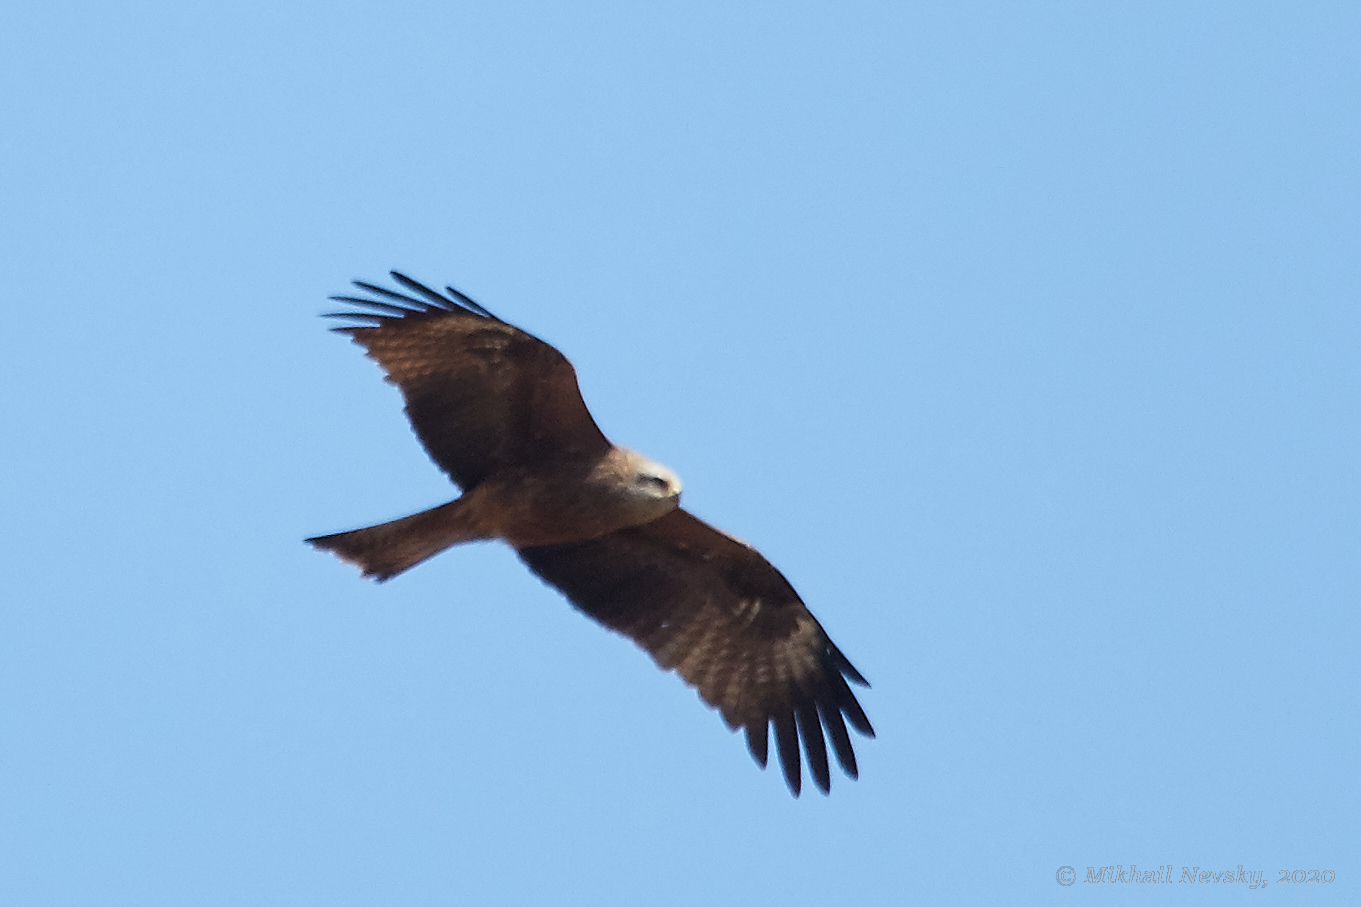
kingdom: Animalia
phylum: Chordata
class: Aves
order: Accipitriformes
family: Accipitridae
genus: Milvus
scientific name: Milvus migrans
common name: Black kite
